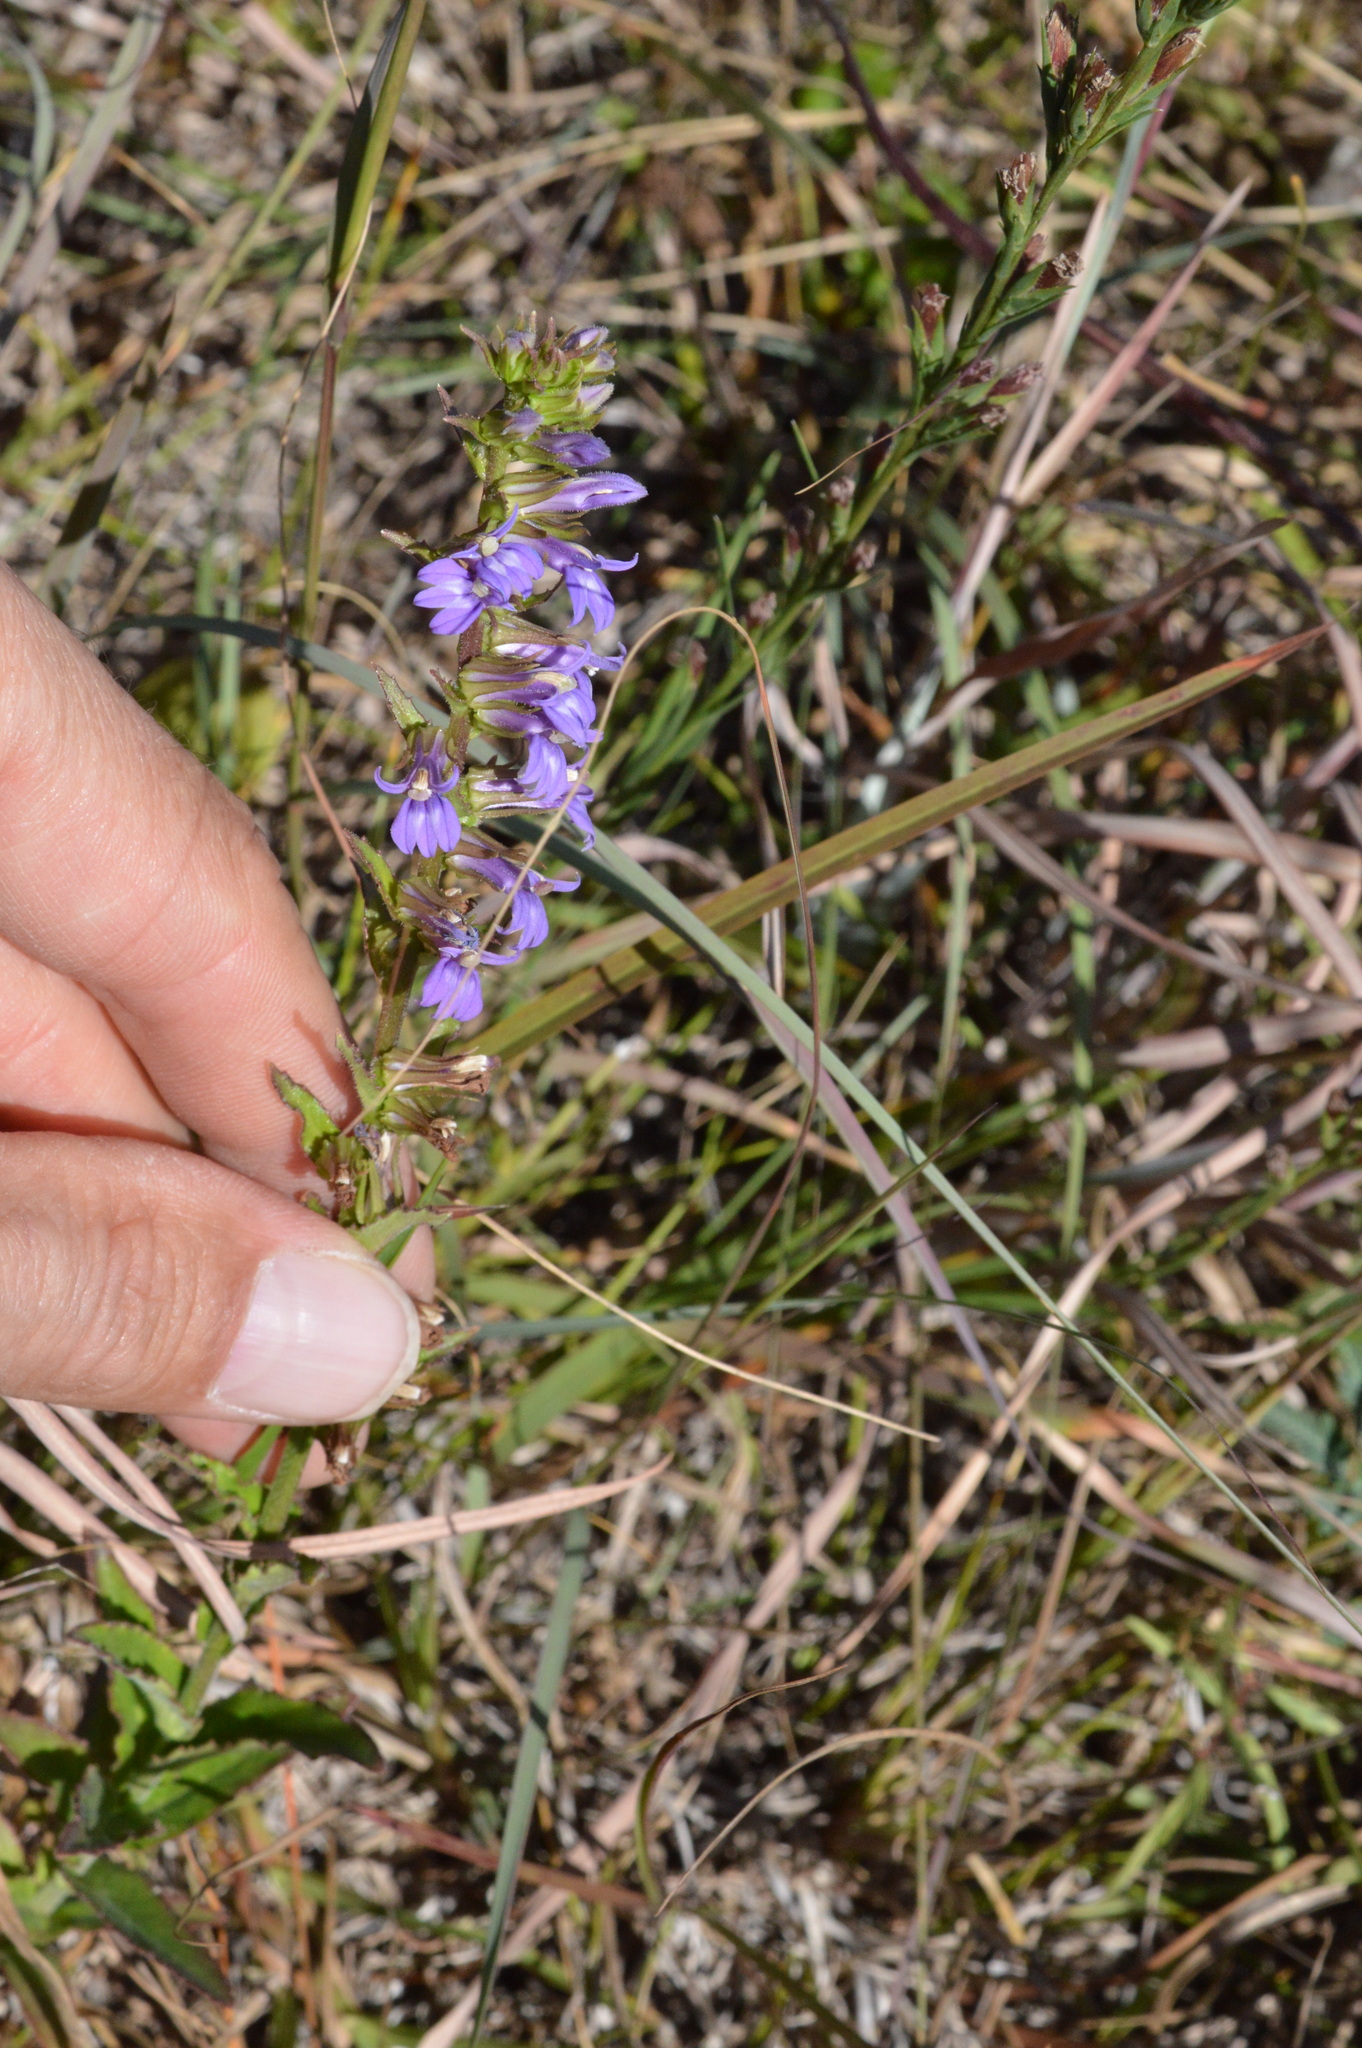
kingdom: Plantae
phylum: Tracheophyta
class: Magnoliopsida
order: Asterales
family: Campanulaceae
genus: Lobelia
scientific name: Lobelia puberula
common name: Purple dewdrop
